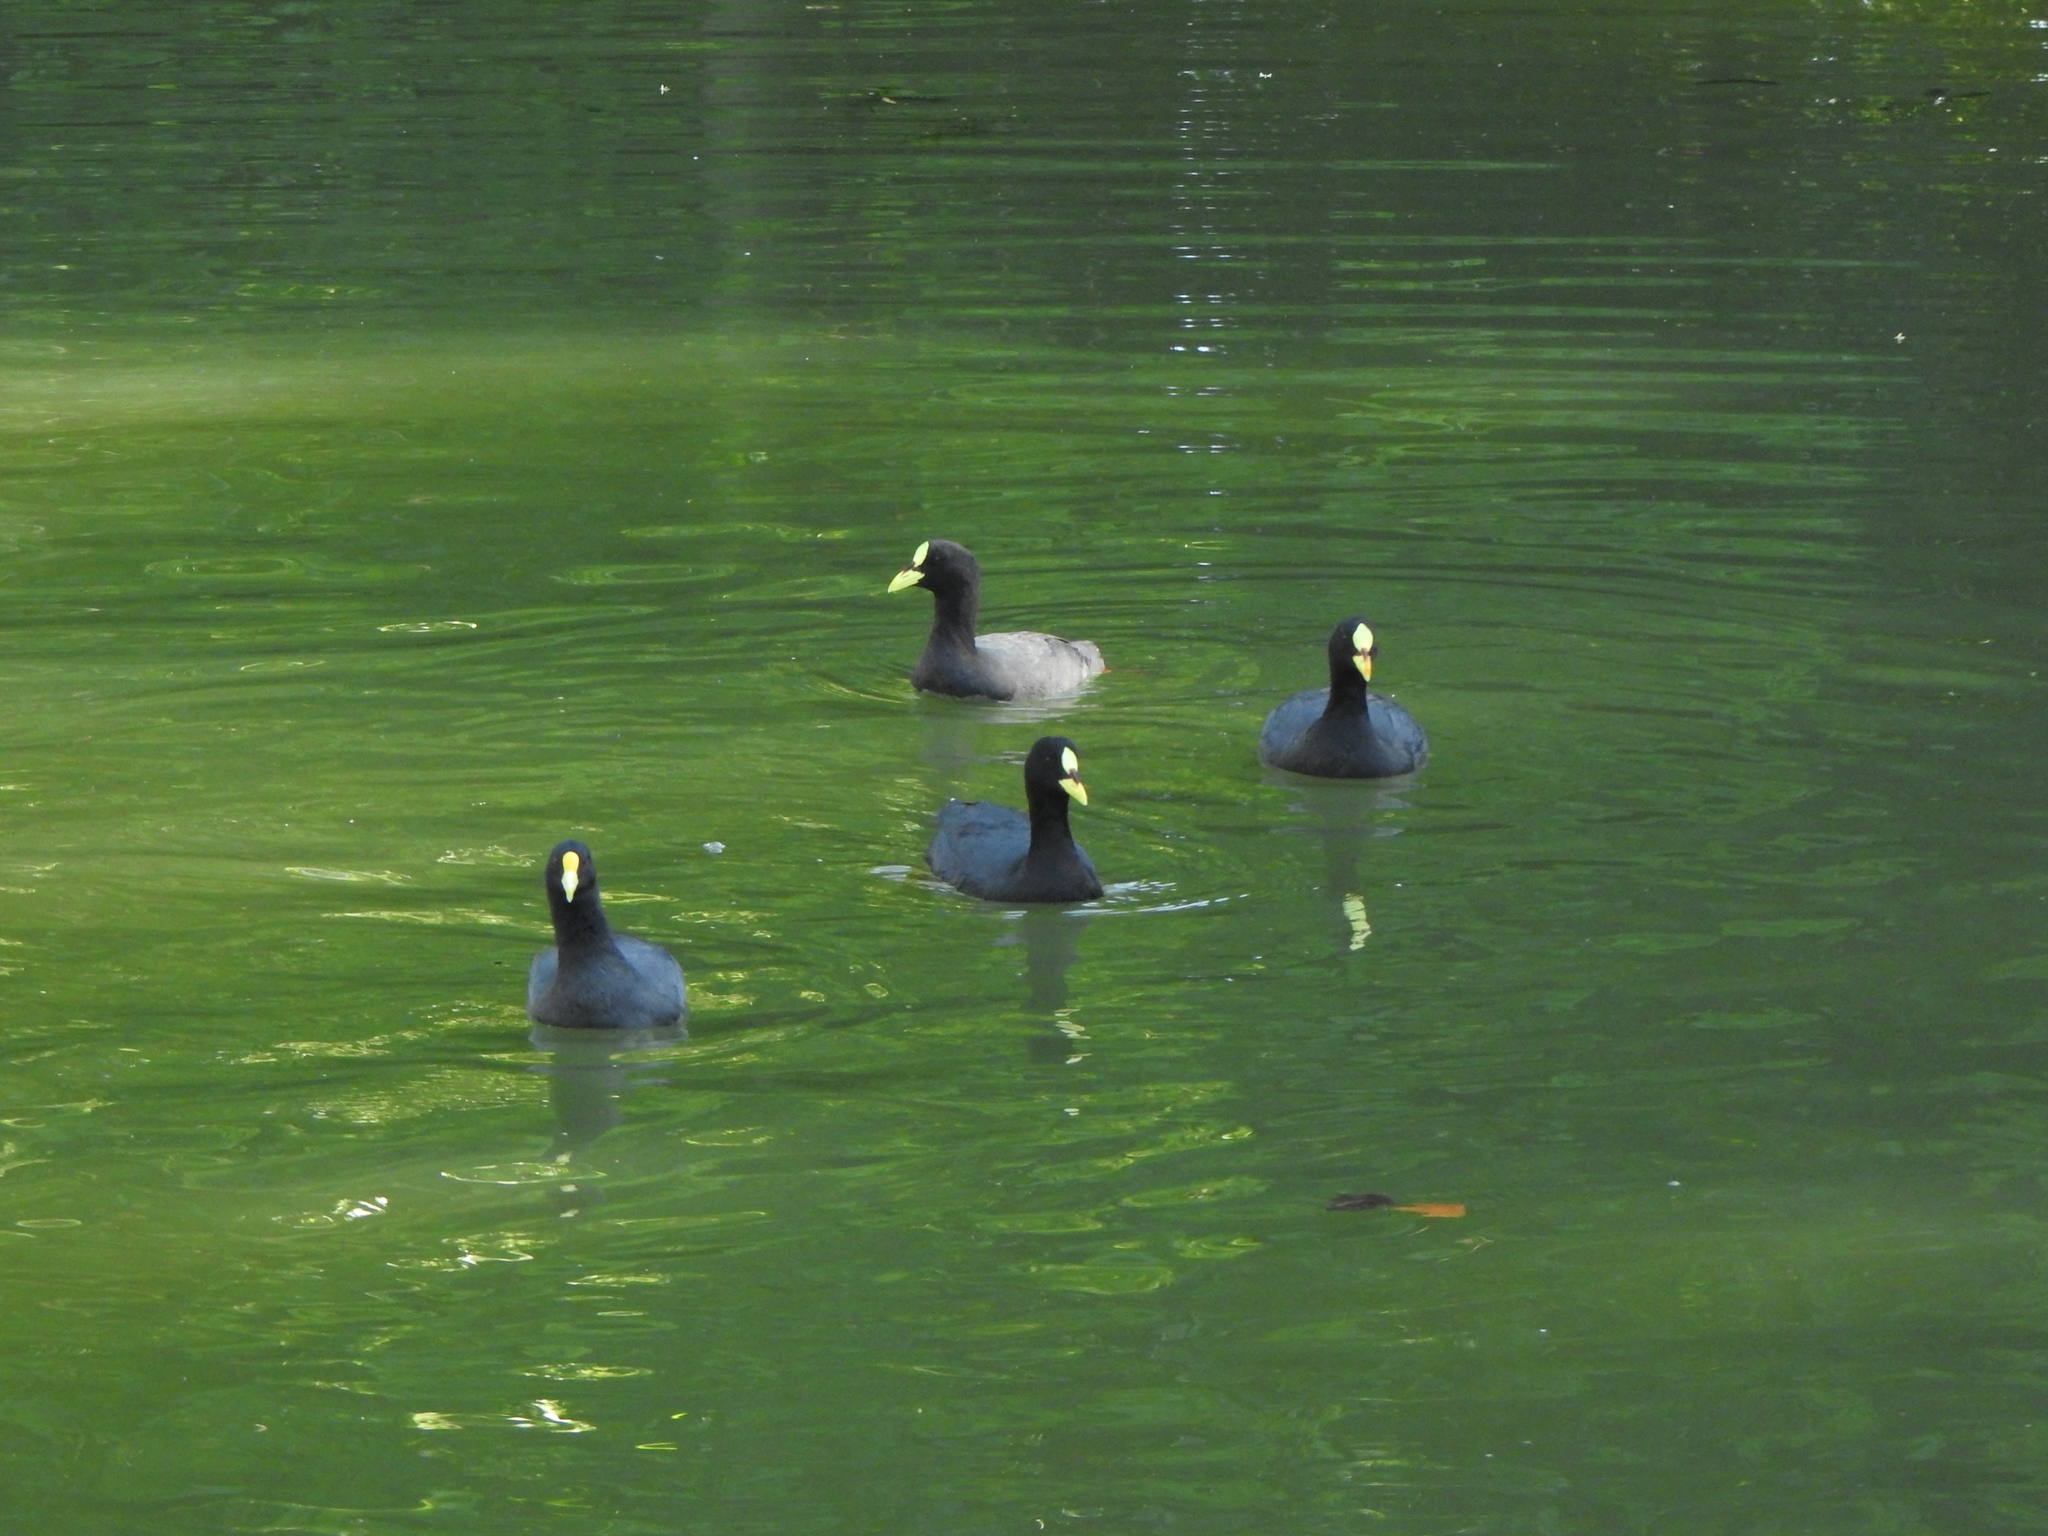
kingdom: Animalia
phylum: Chordata
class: Aves
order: Gruiformes
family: Rallidae
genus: Fulica
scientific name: Fulica armillata
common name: Red-gartered coot
